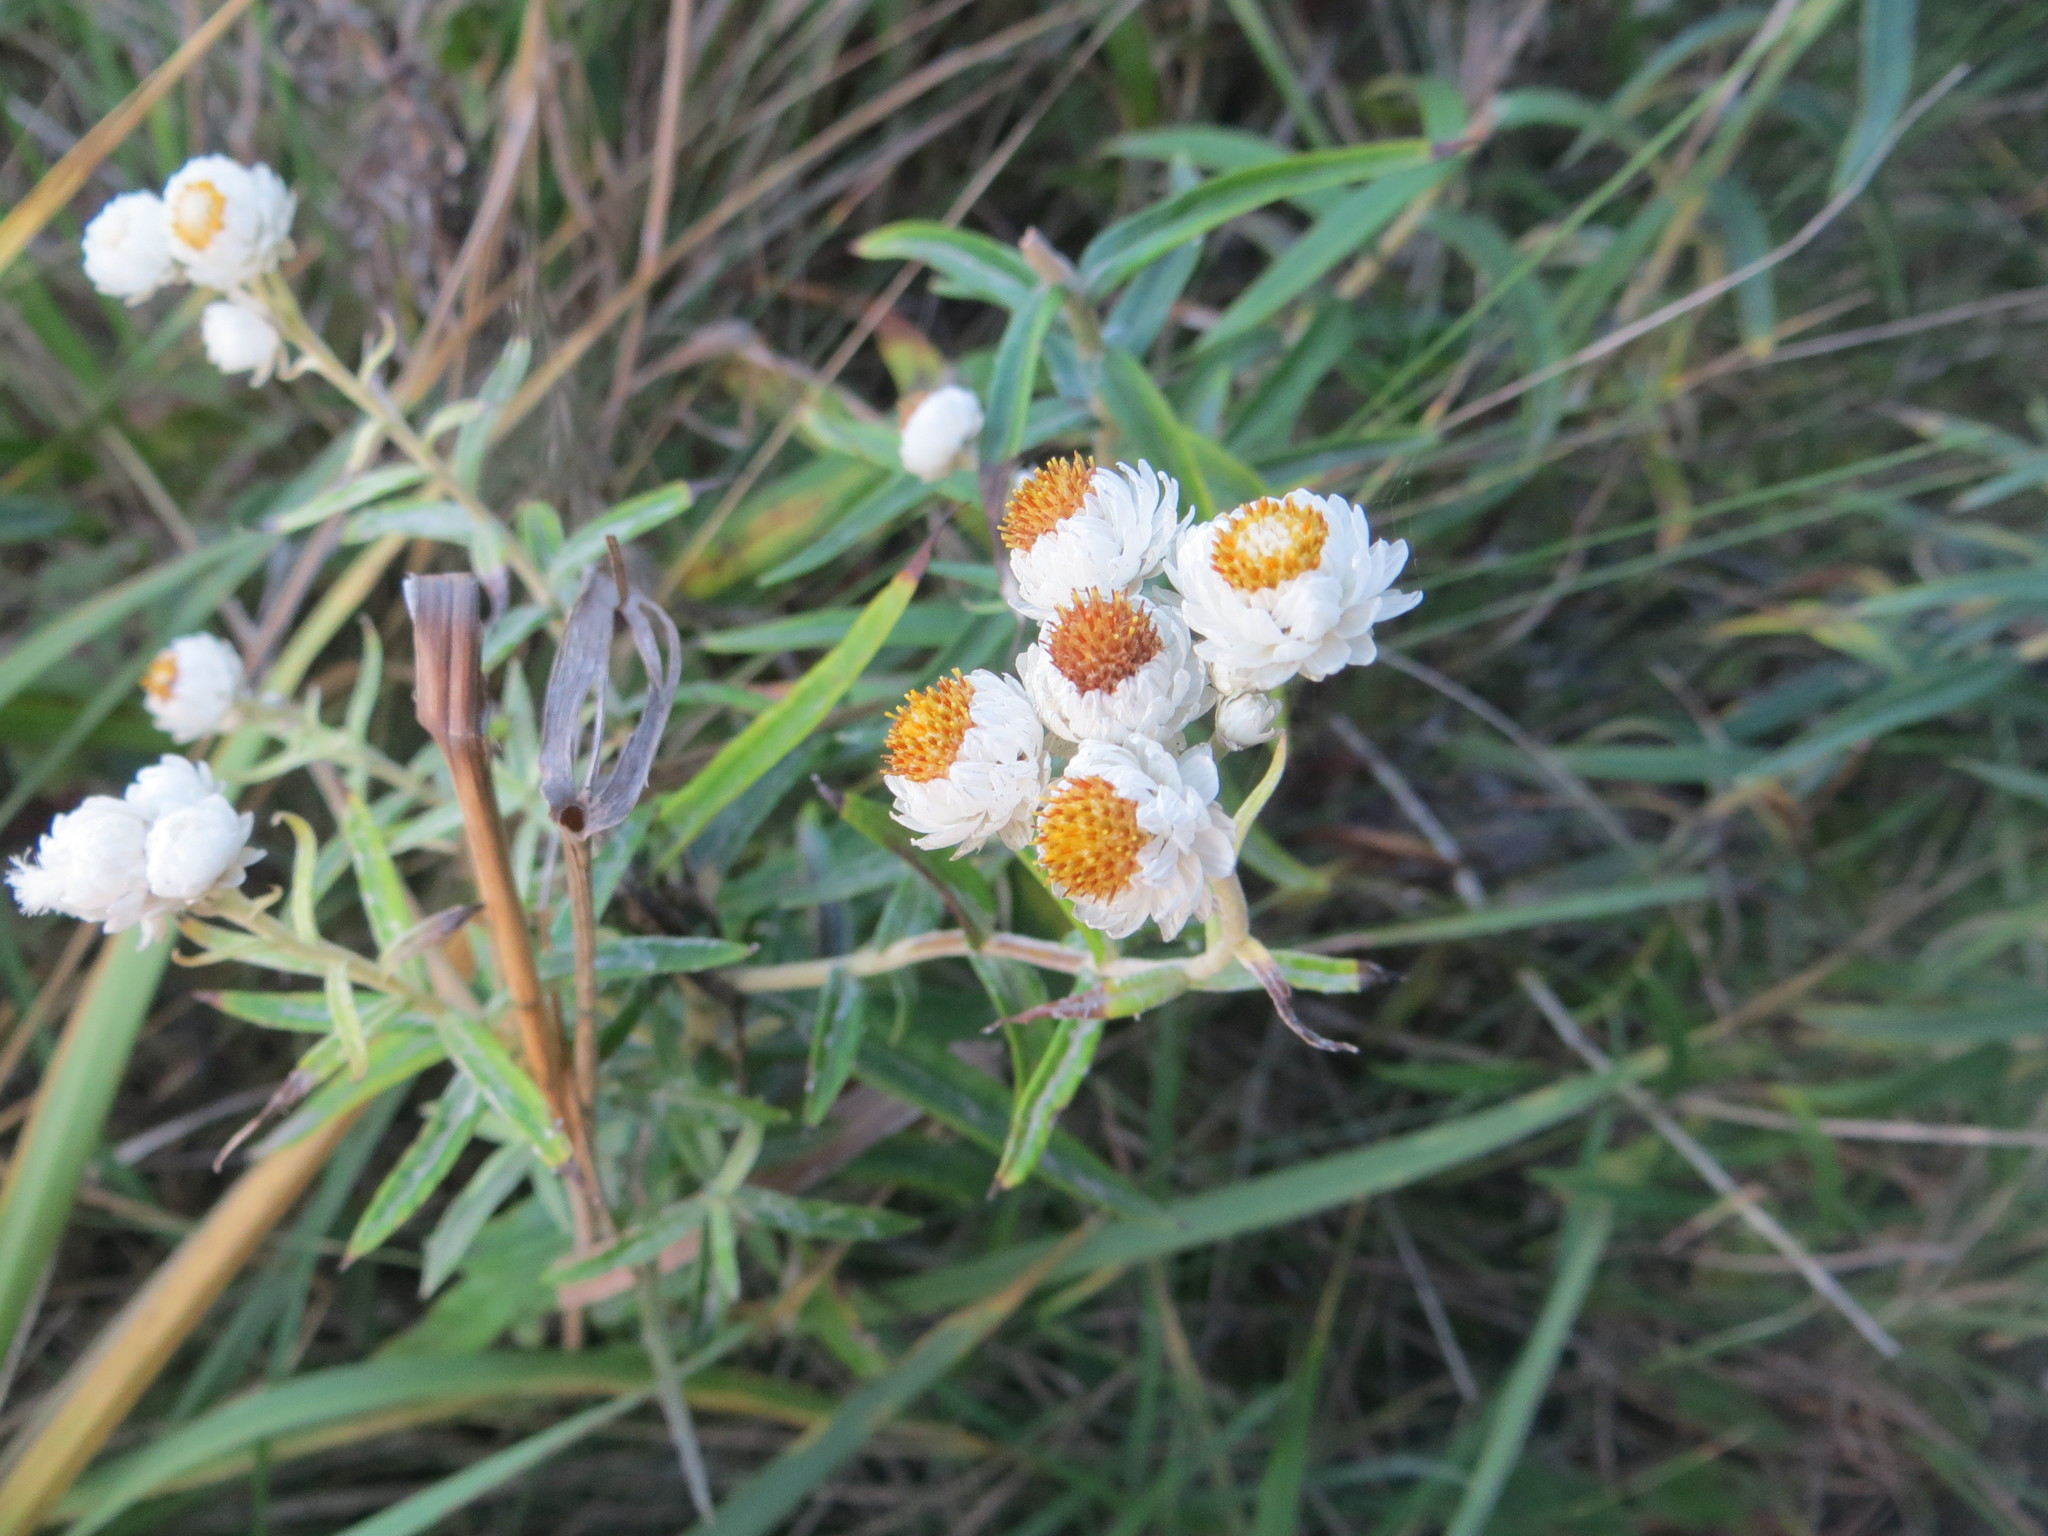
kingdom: Plantae
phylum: Tracheophyta
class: Magnoliopsida
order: Asterales
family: Asteraceae
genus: Anaphalis
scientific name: Anaphalis margaritacea
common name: Pearly everlasting
